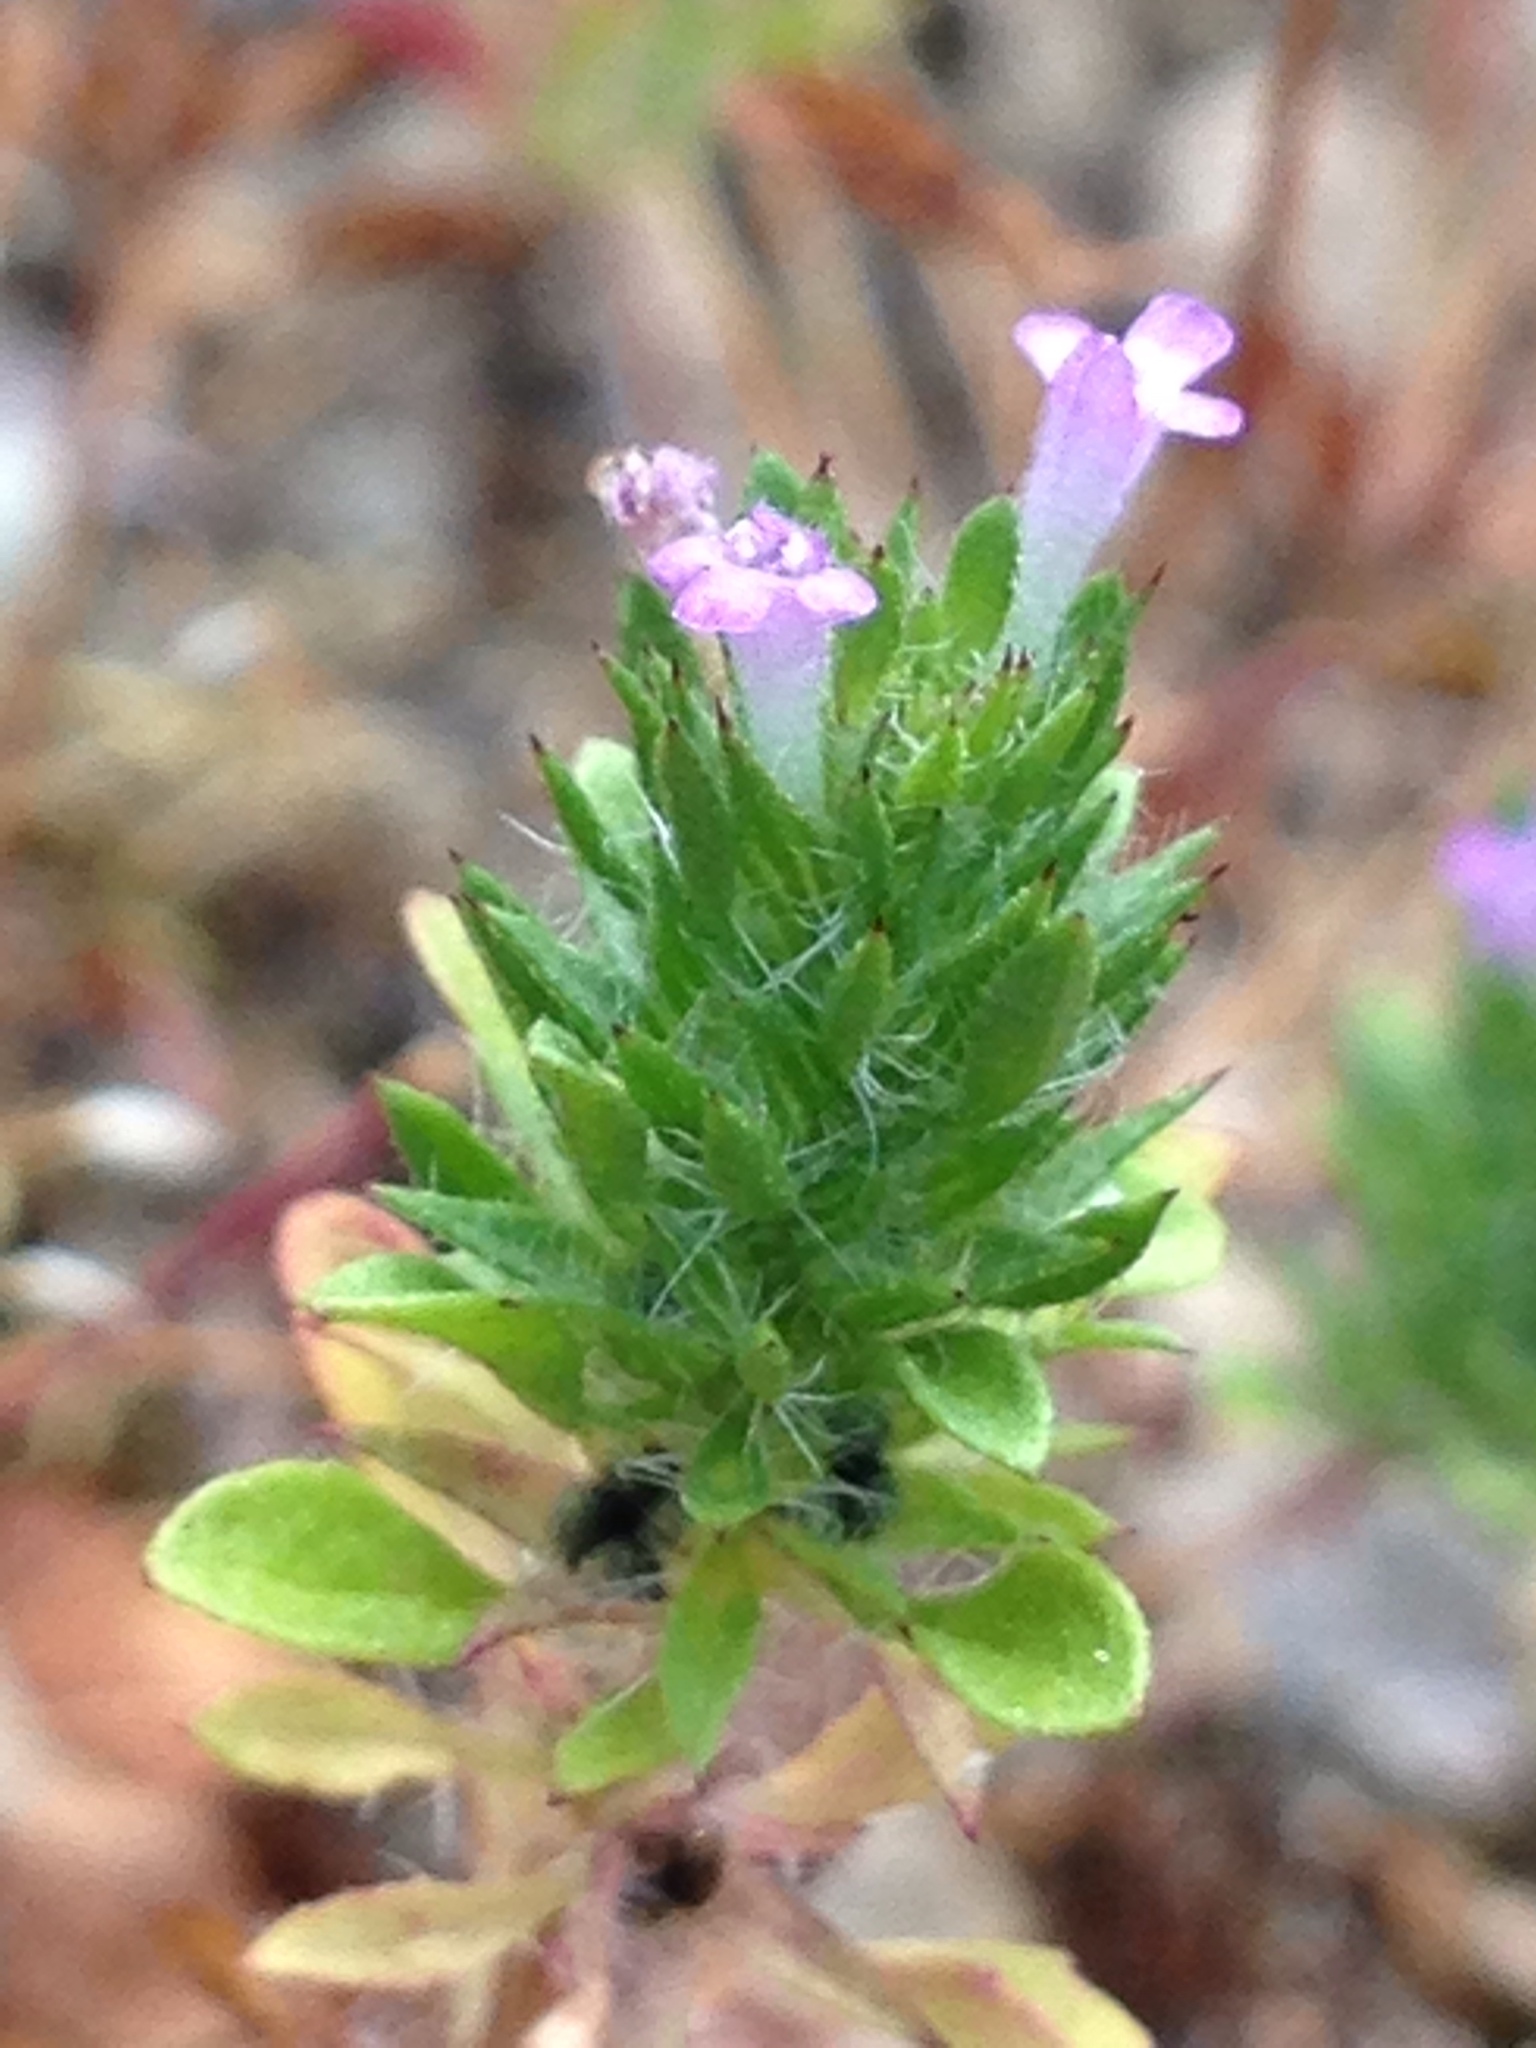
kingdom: Plantae
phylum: Tracheophyta
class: Magnoliopsida
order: Lamiales
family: Lamiaceae
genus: Pogogyne
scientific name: Pogogyne serpylloides
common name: Thymeleaf mesamint
